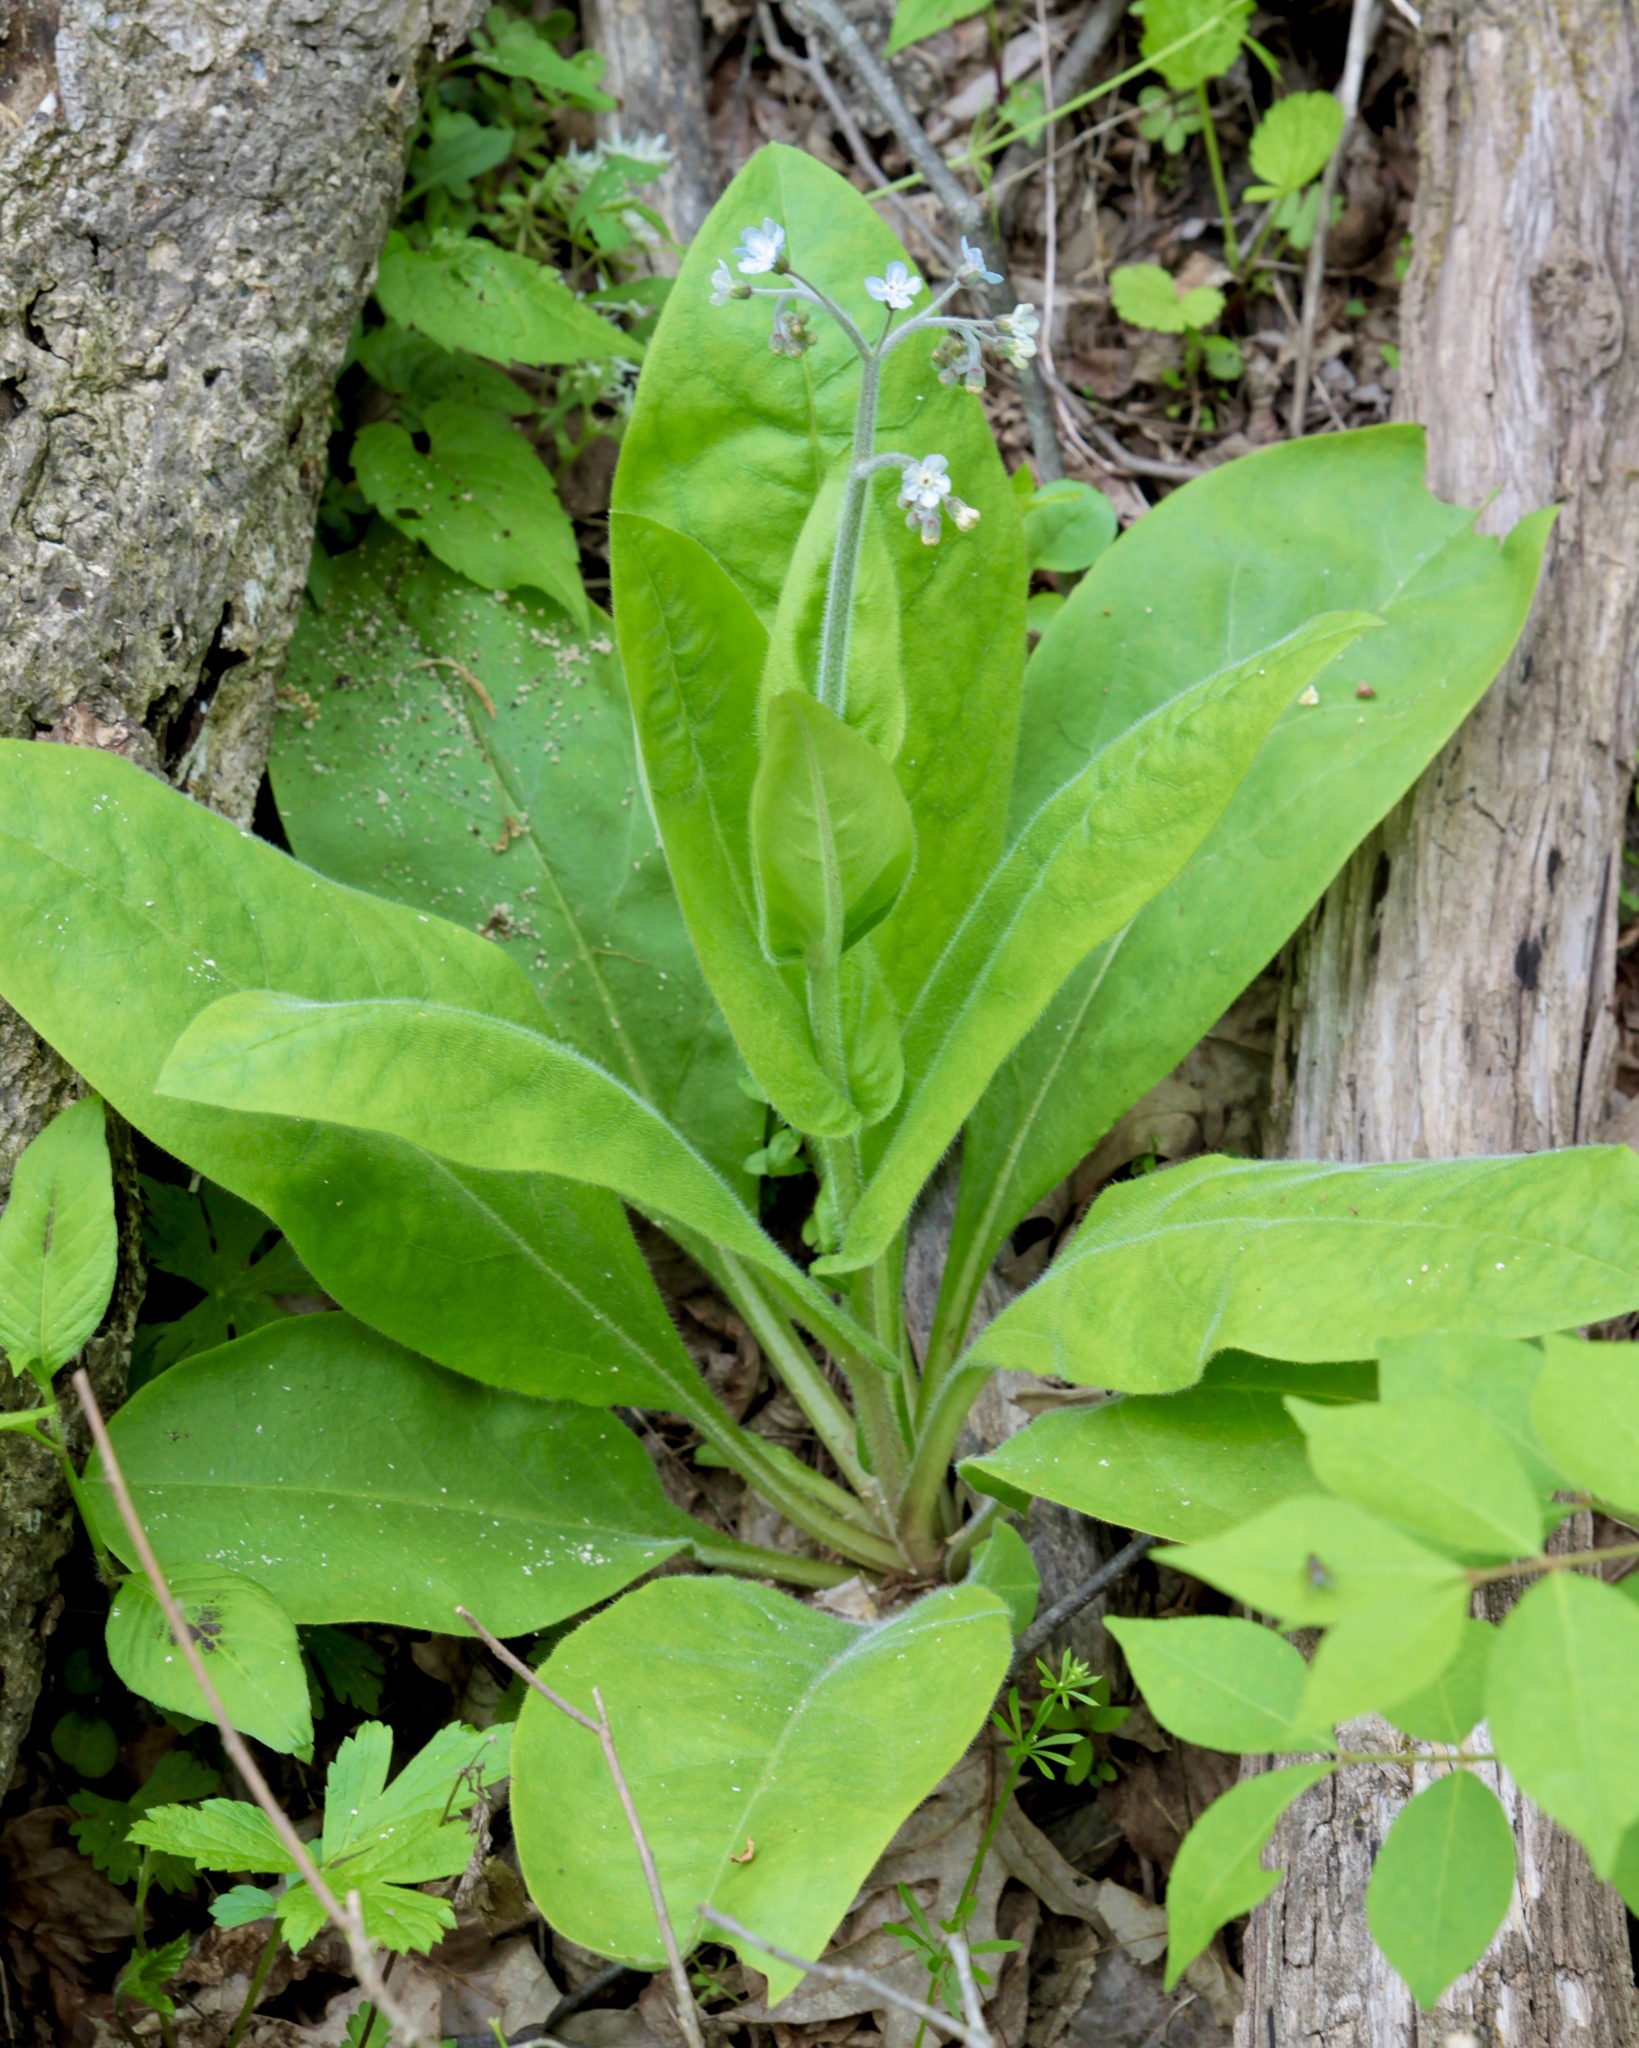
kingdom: Plantae
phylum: Tracheophyta
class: Magnoliopsida
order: Boraginales
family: Boraginaceae
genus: Andersonglossum
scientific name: Andersonglossum virginianum
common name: Wild comfrey
